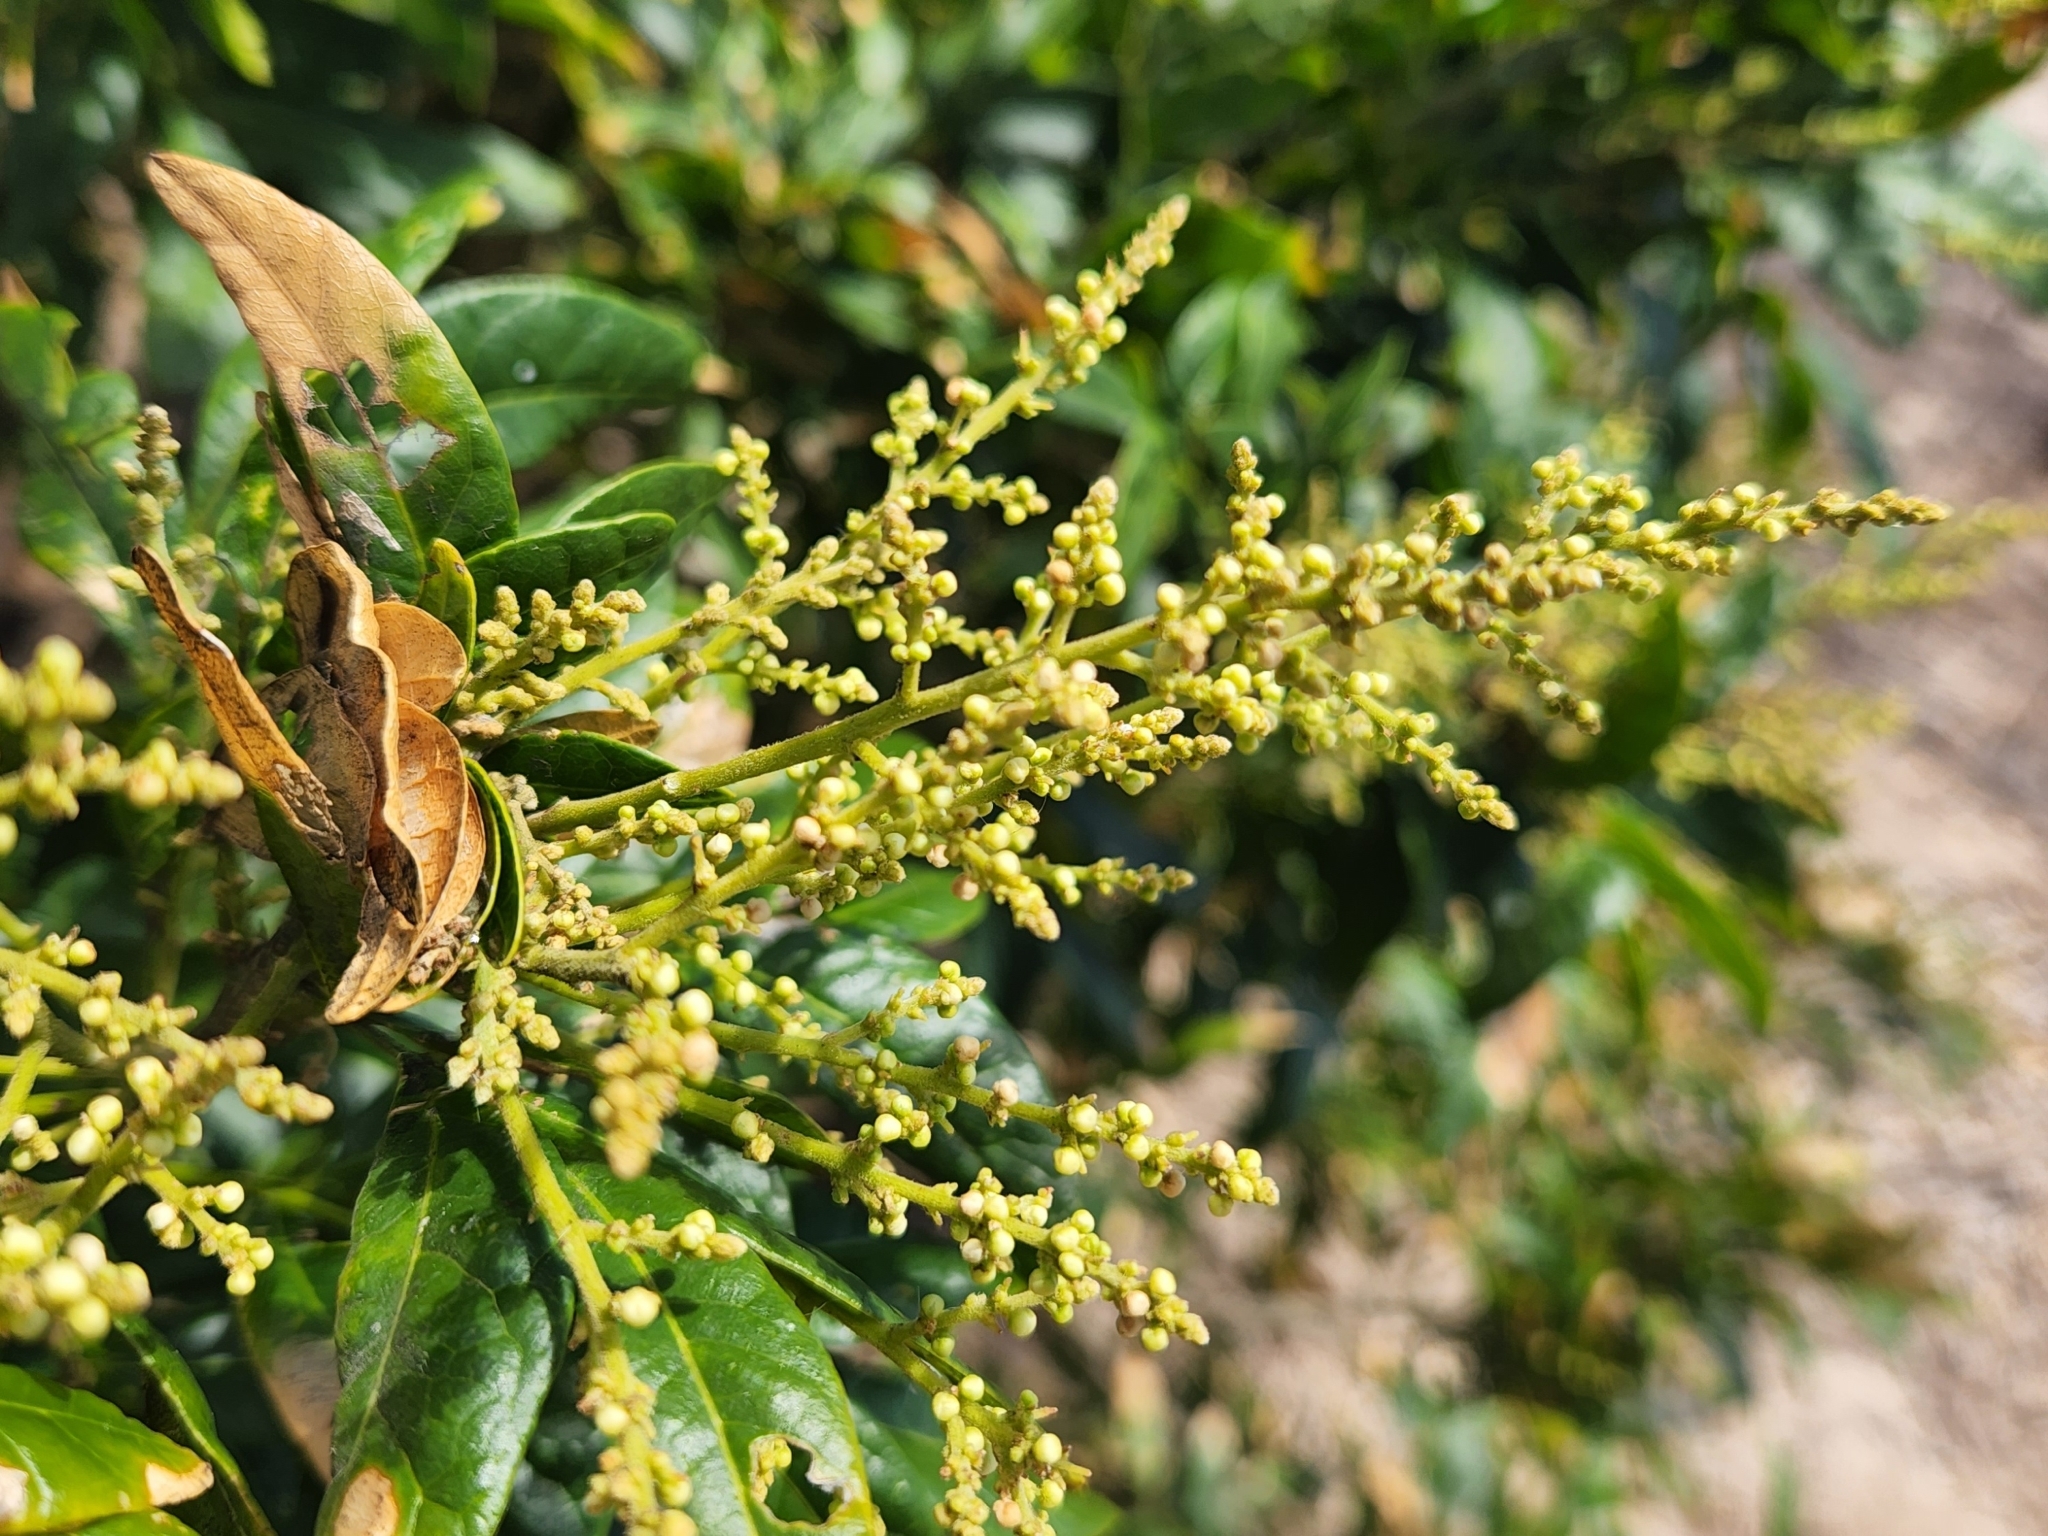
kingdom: Plantae
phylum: Tracheophyta
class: Magnoliopsida
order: Sapindales
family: Sapindaceae
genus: Sapindus
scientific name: Sapindus saponaria
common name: Wingleaf soapberry
